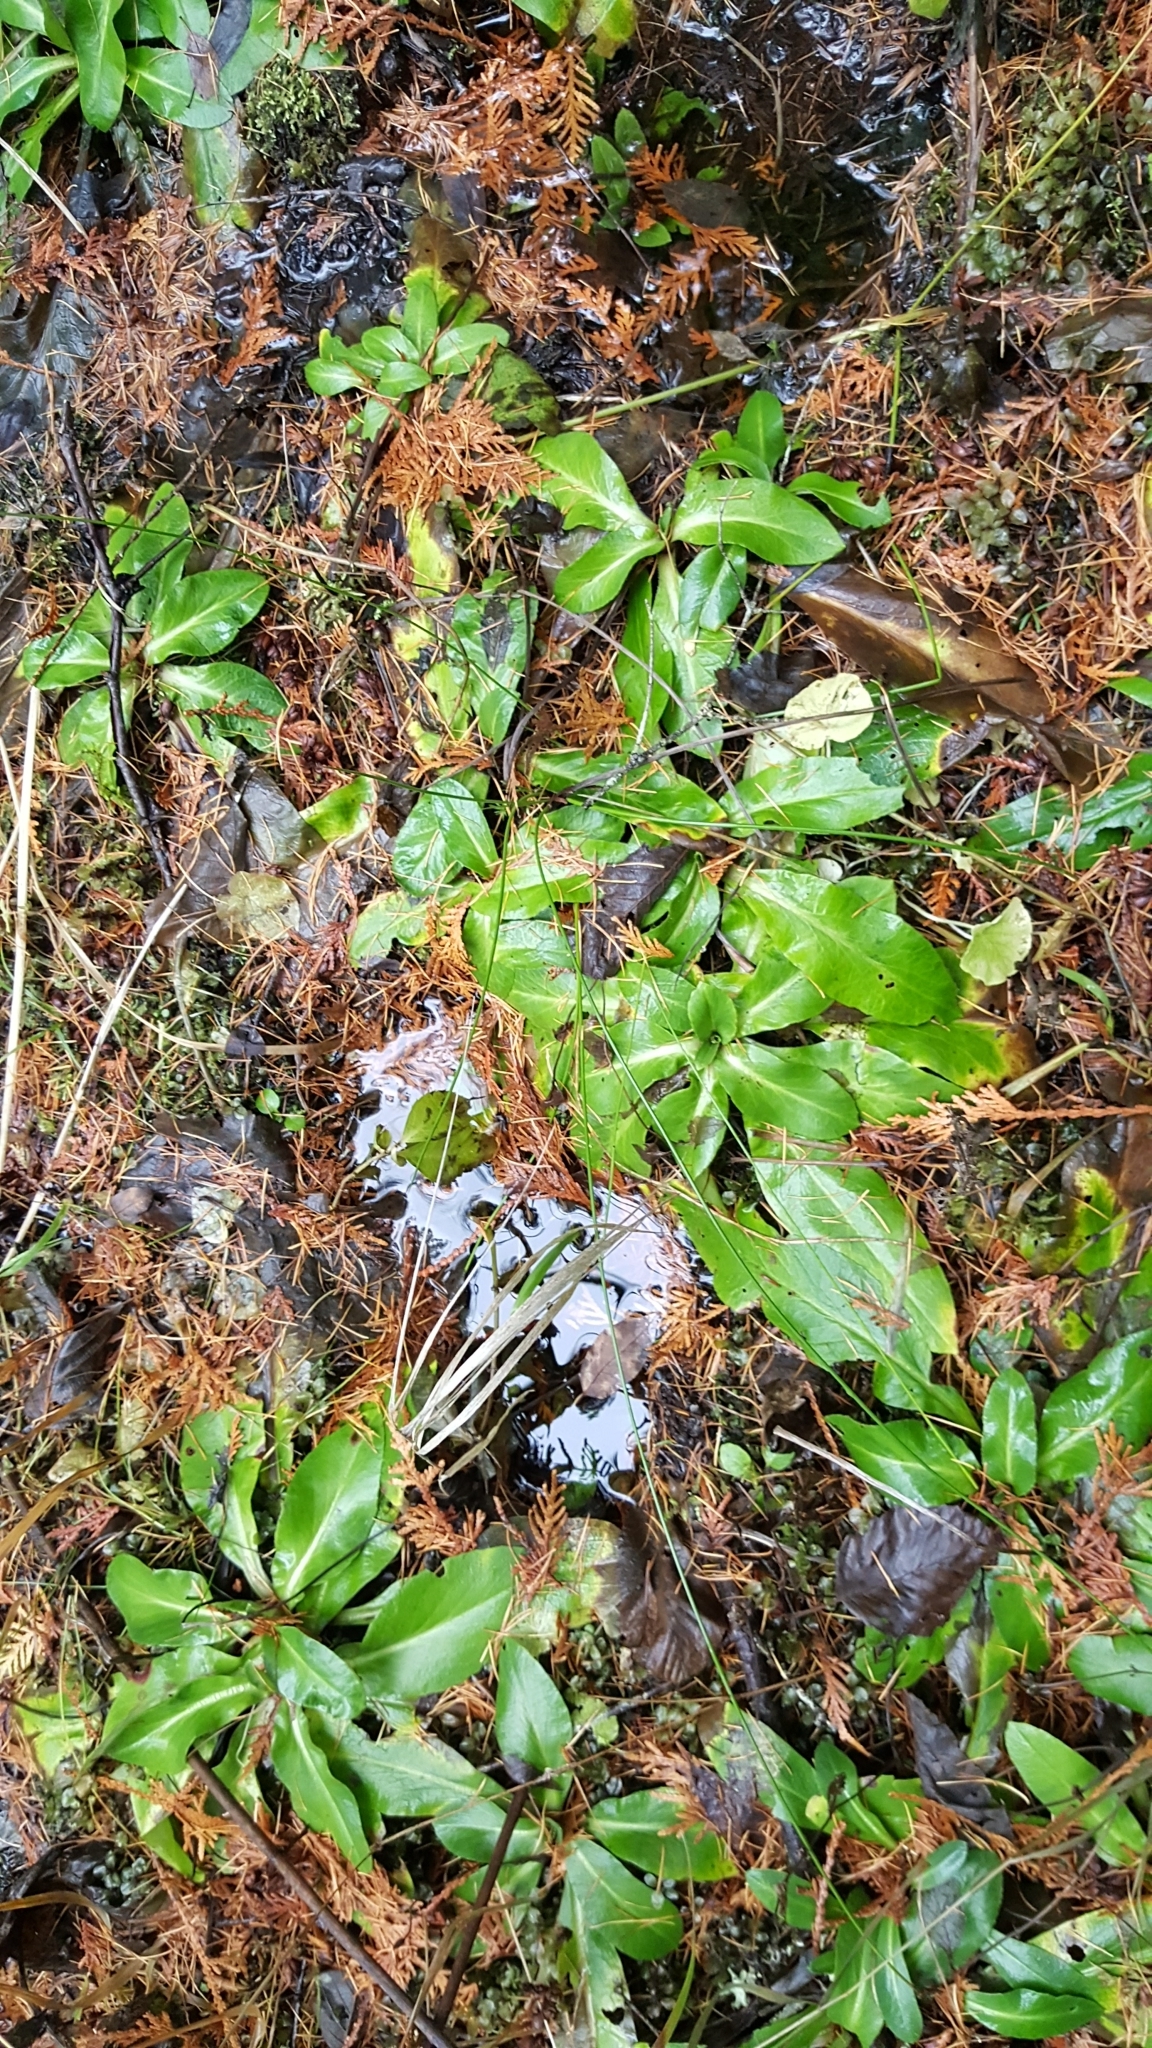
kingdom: Plantae
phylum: Tracheophyta
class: Magnoliopsida
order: Saxifragales
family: Saxifragaceae
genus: Micranthes
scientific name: Micranthes pensylvanica
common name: Marsh saxifrage
